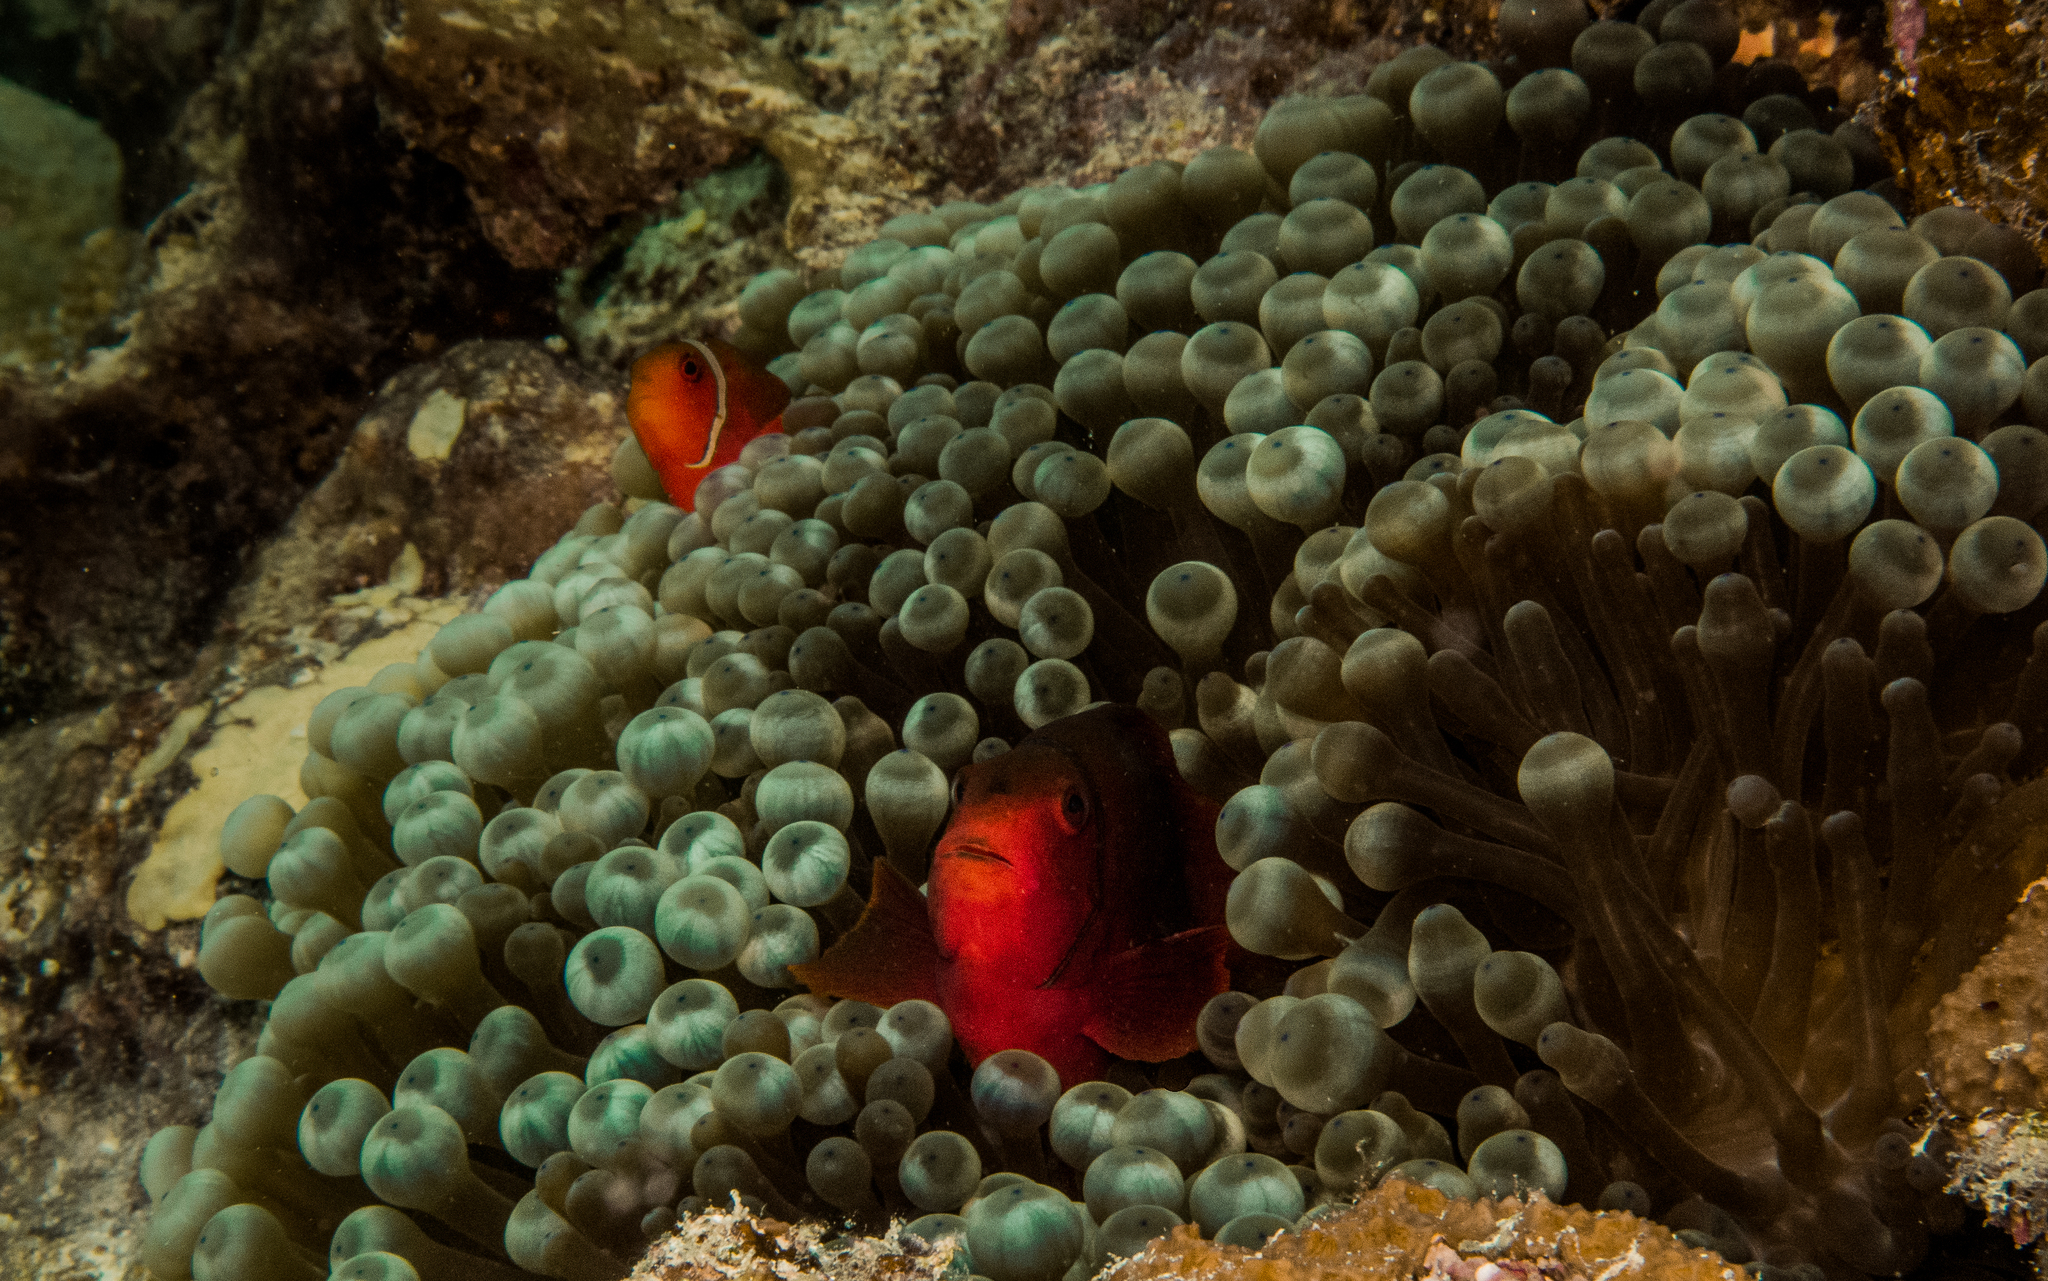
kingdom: Animalia
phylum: Chordata
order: Perciformes
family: Pomacentridae
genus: Amphiprion
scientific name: Amphiprion melanopus
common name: Black anemonefish
